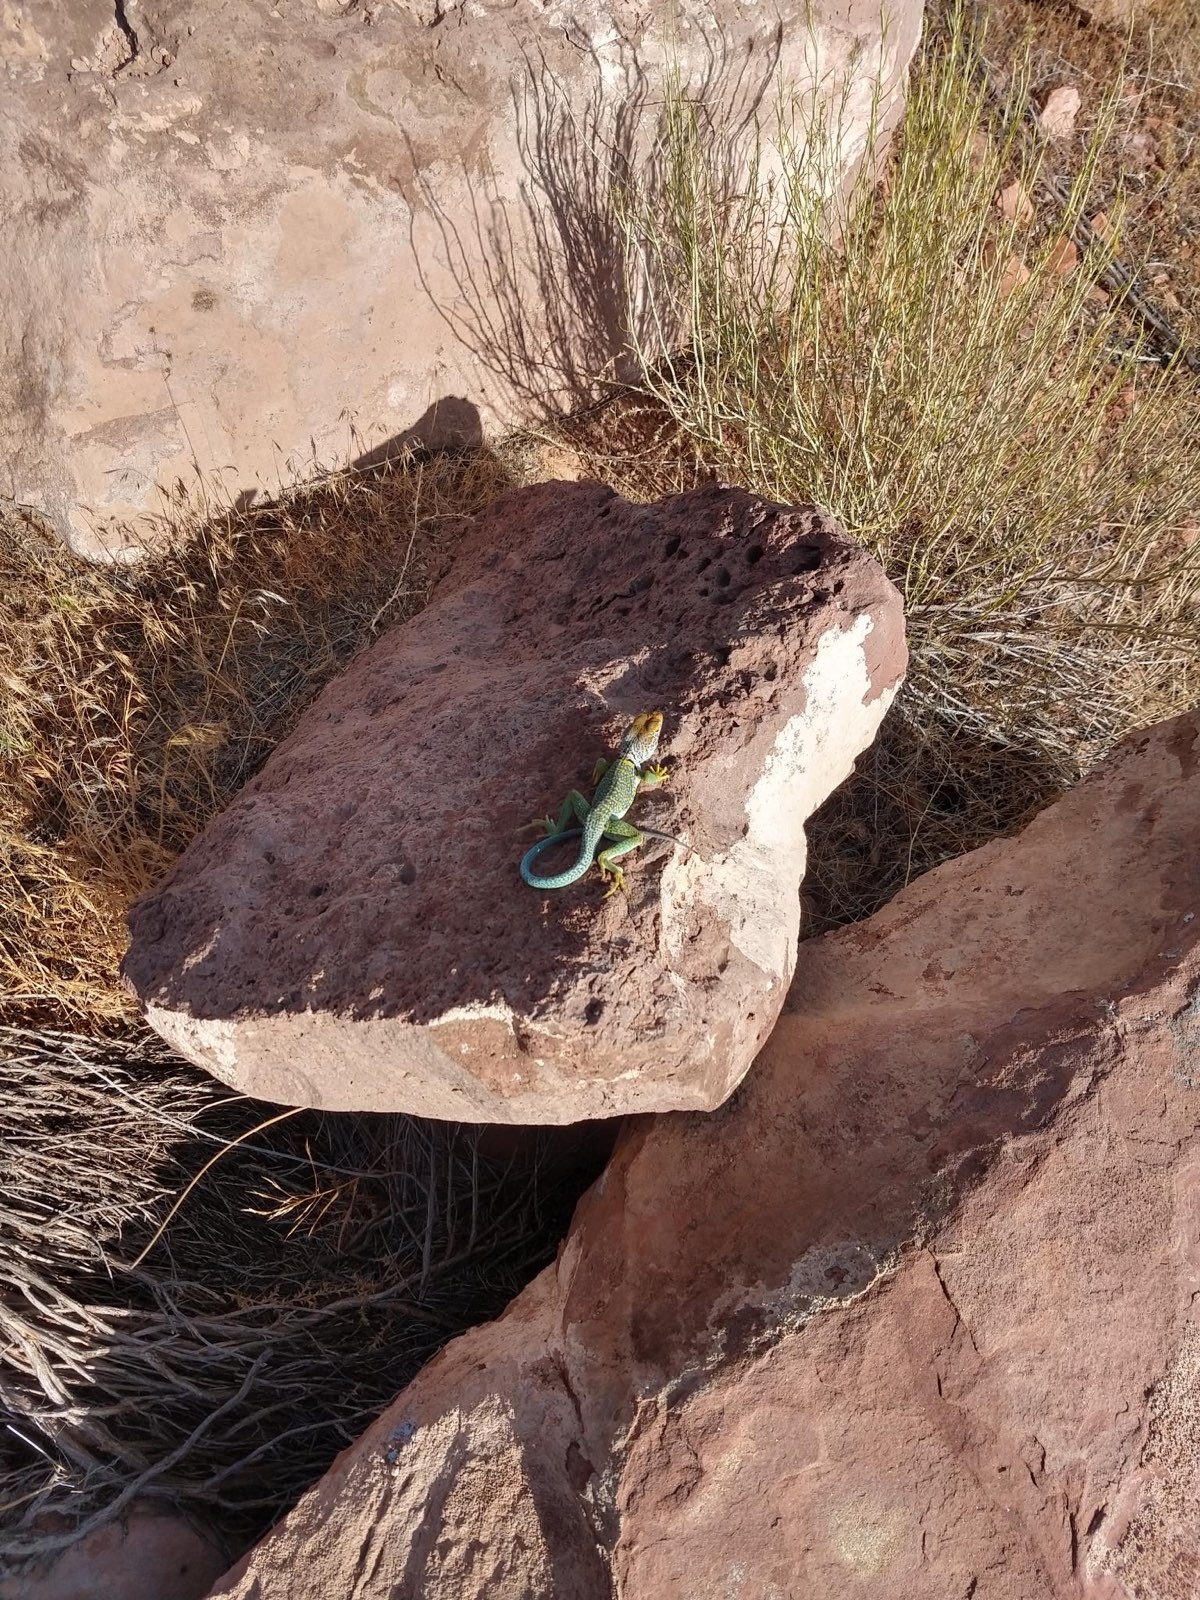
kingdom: Animalia
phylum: Chordata
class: Squamata
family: Crotaphytidae
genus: Crotaphytus
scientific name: Crotaphytus collaris
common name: Collared lizard
